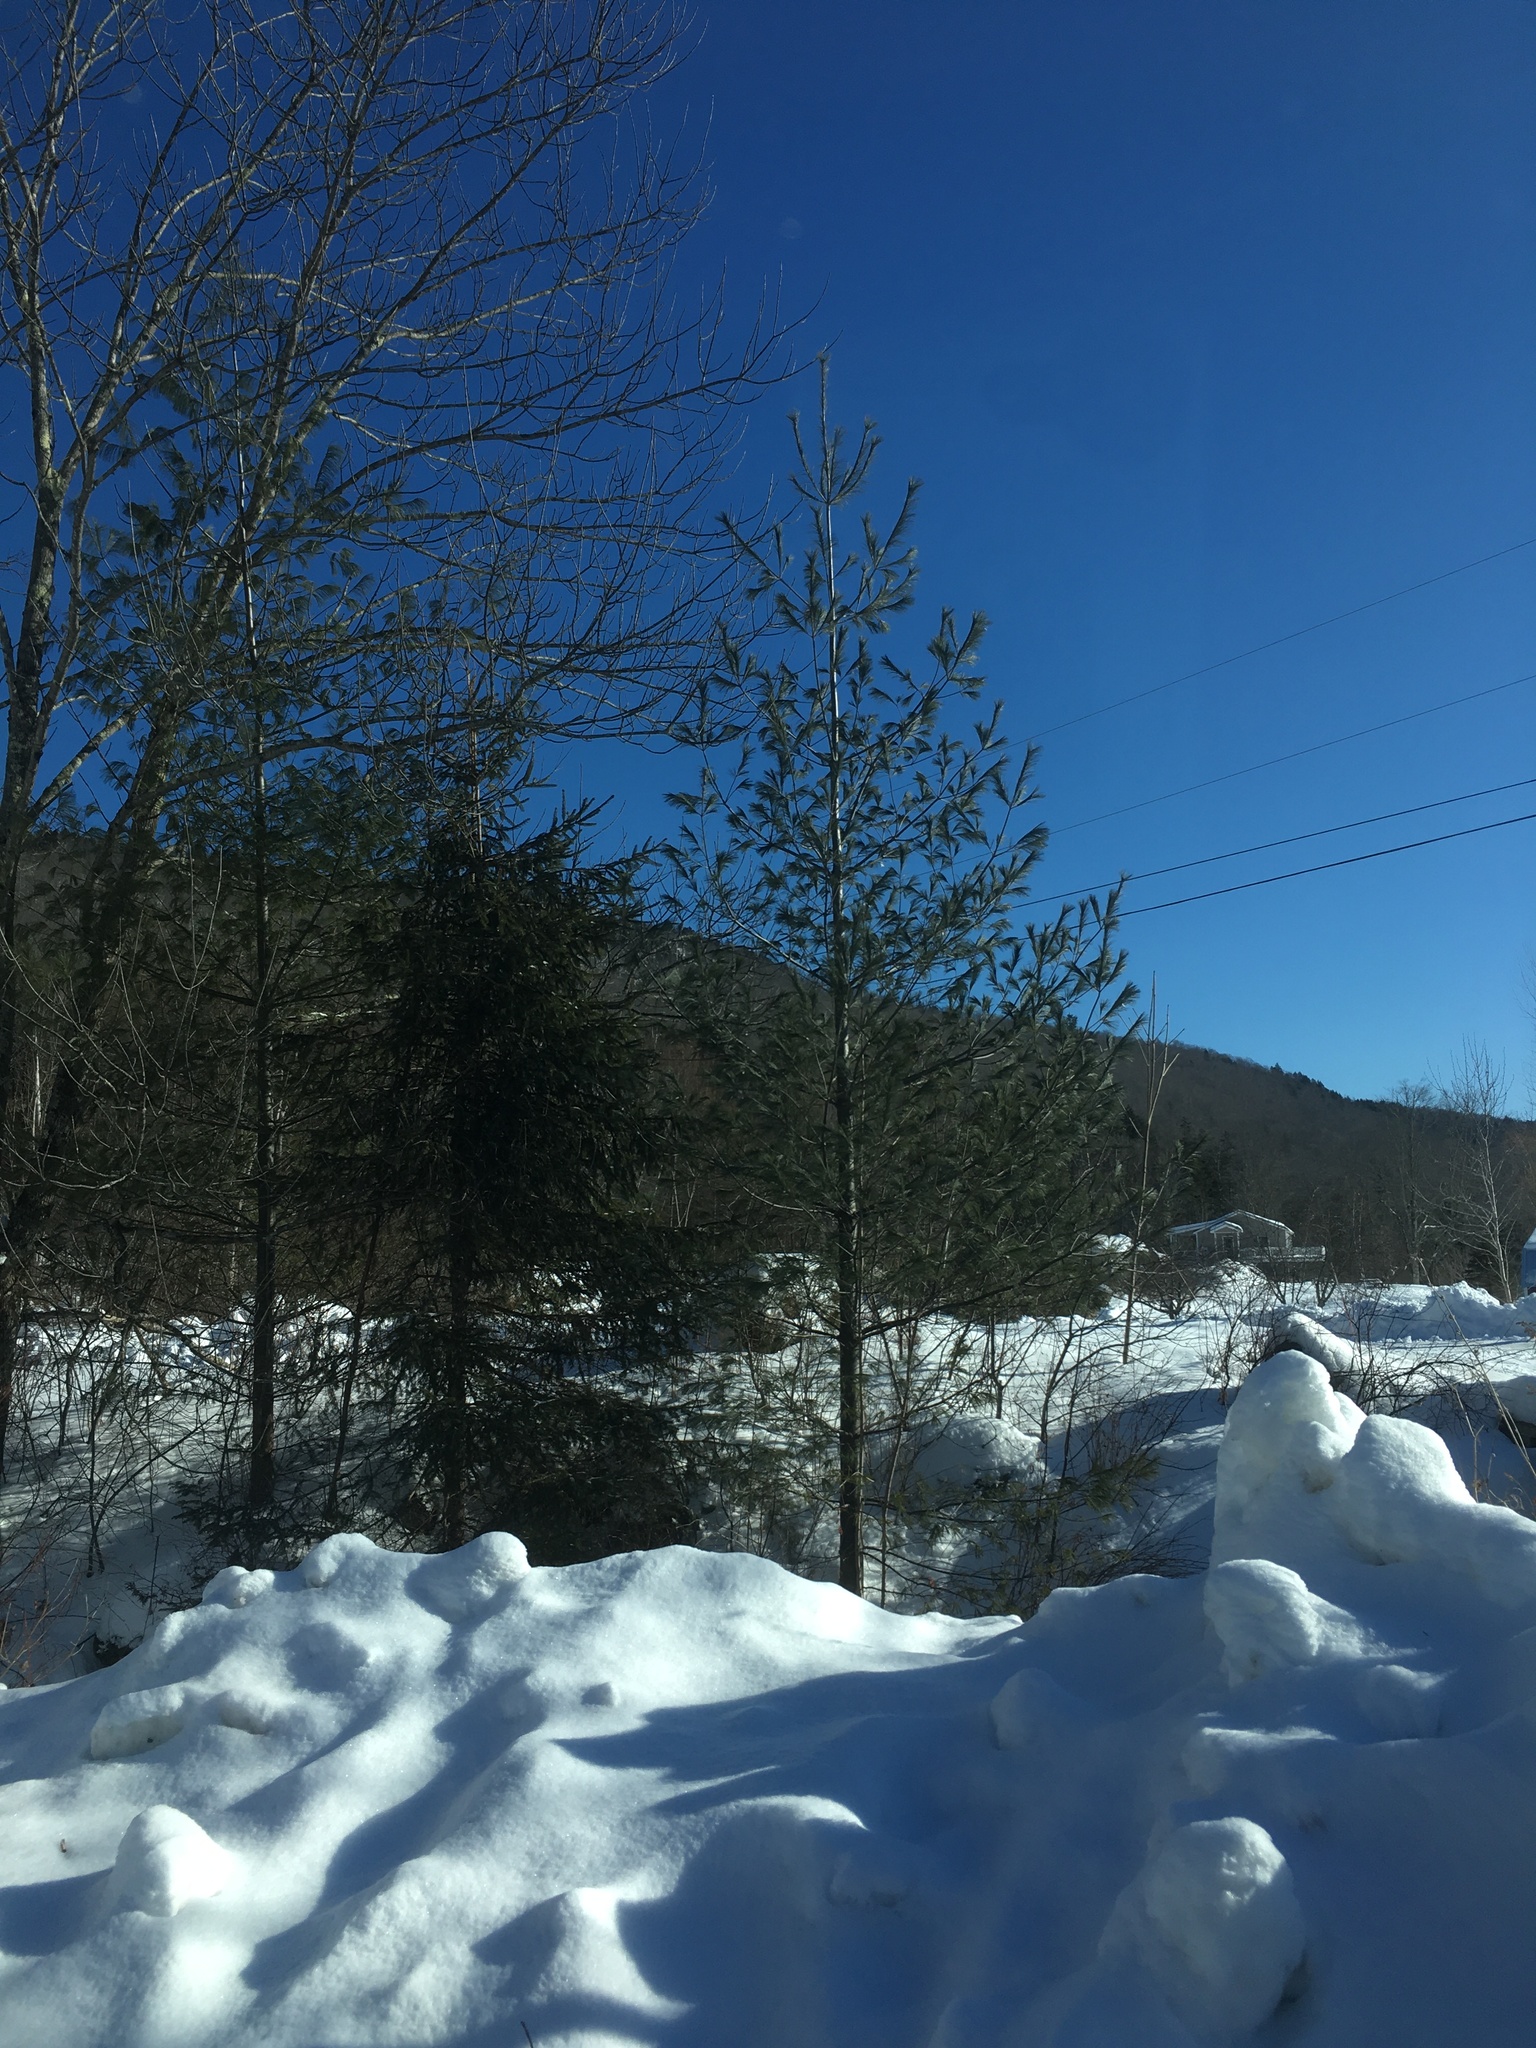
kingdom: Plantae
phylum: Tracheophyta
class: Pinopsida
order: Pinales
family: Pinaceae
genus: Pinus
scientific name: Pinus strobus
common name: Weymouth pine
